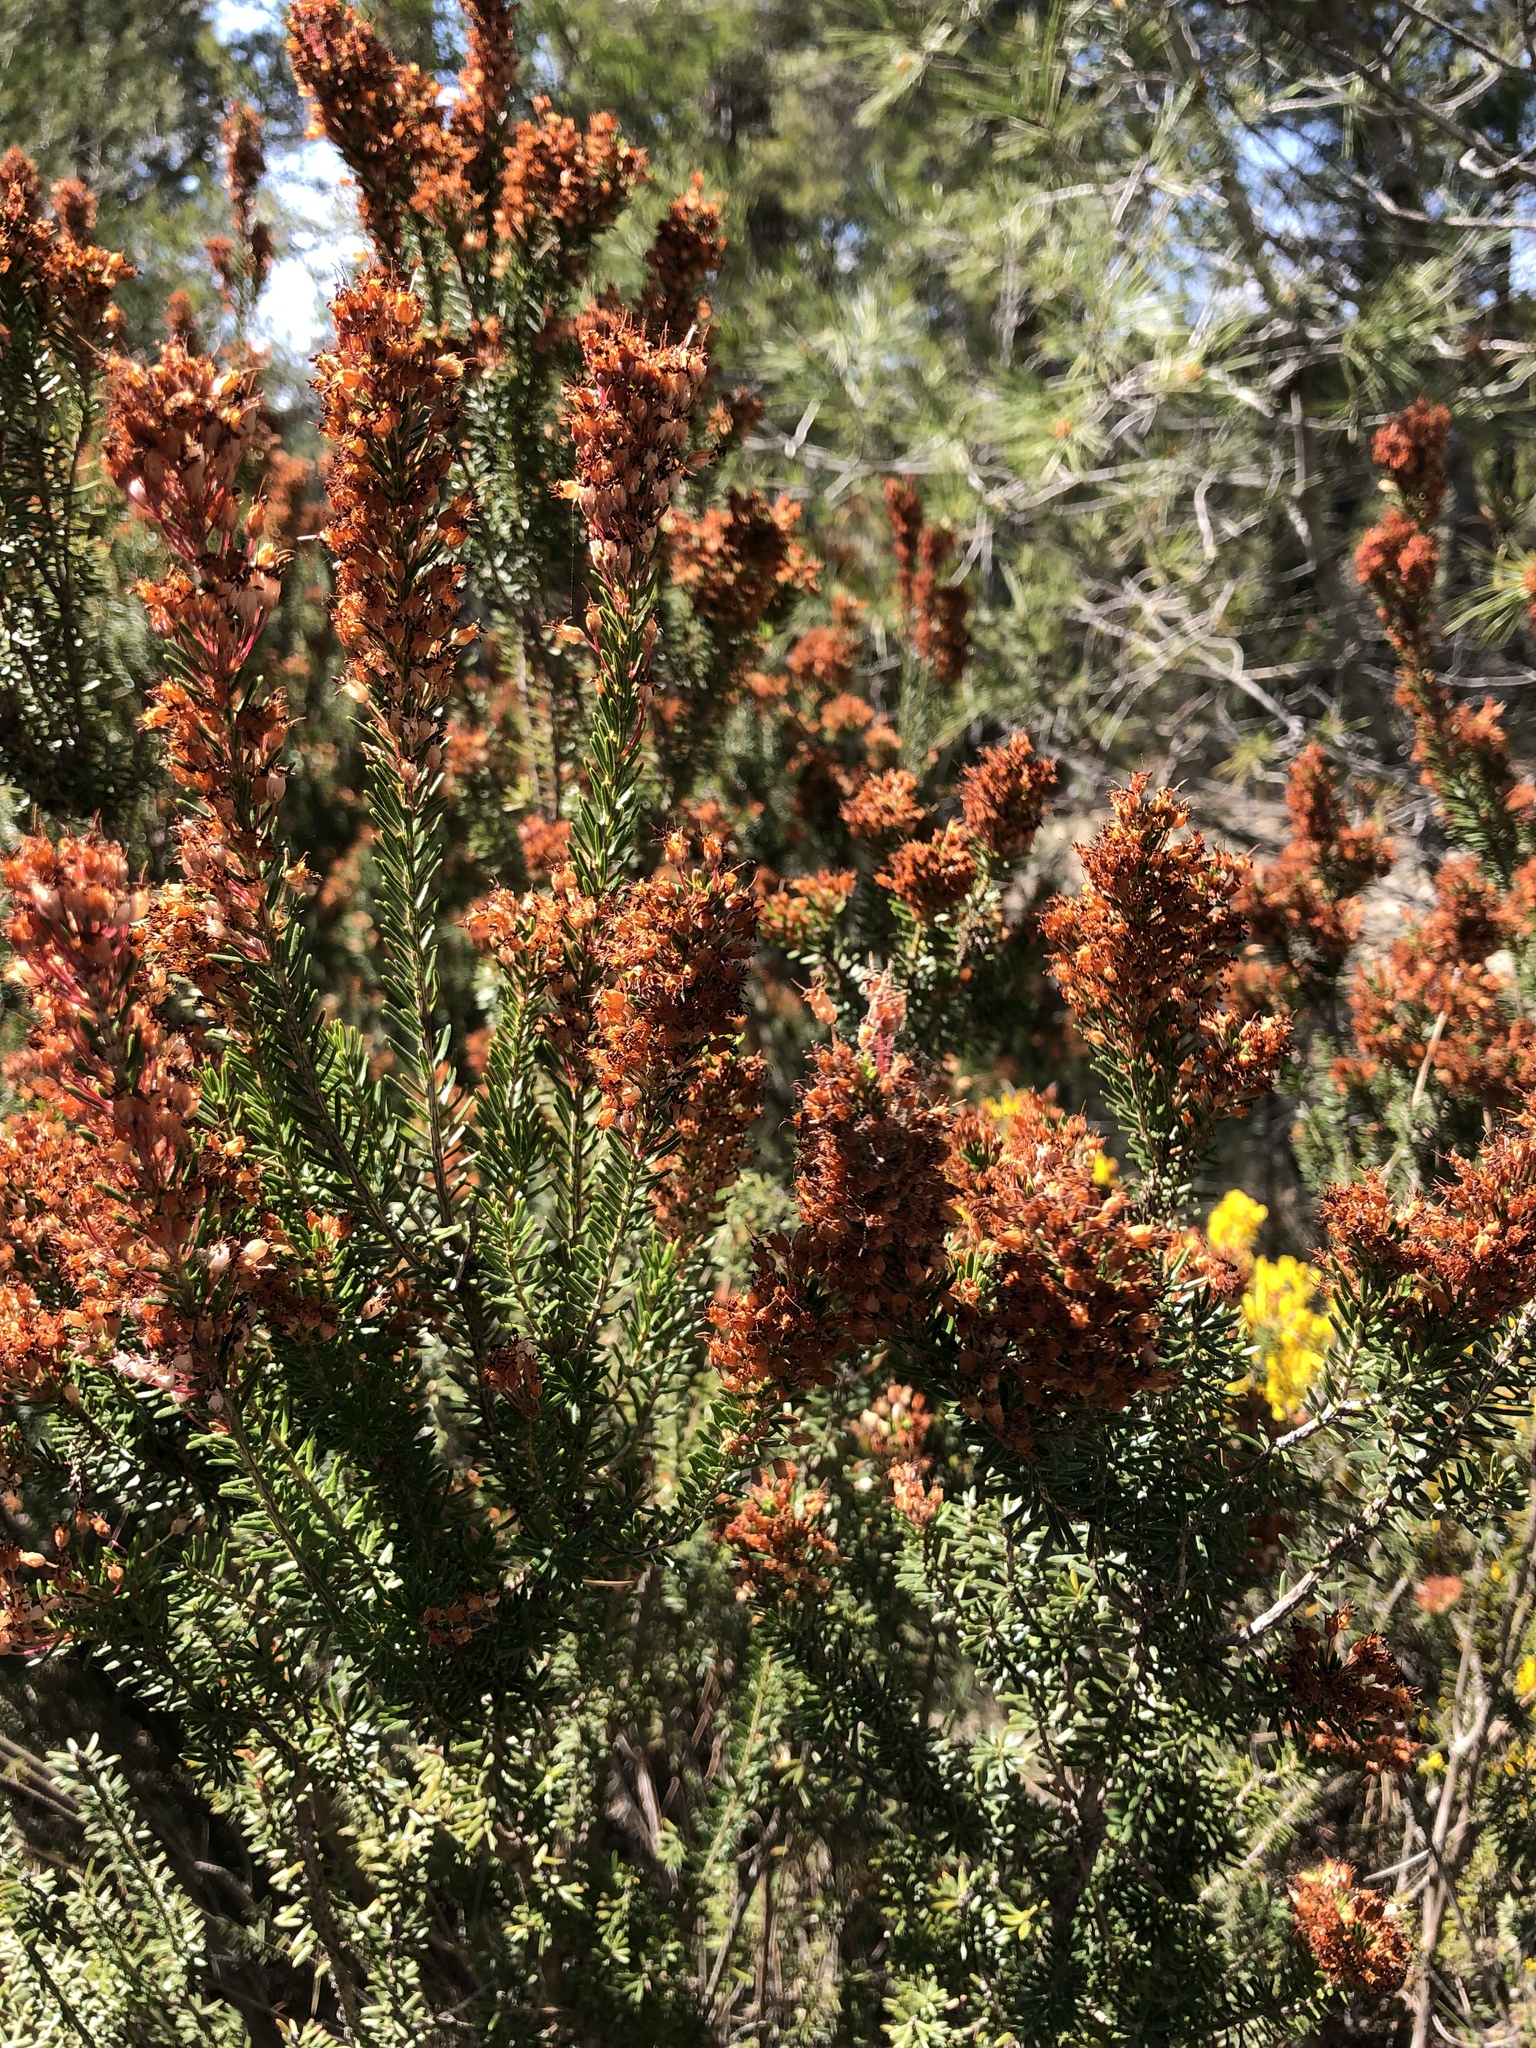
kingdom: Plantae
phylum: Tracheophyta
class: Magnoliopsida
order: Ericales
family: Ericaceae
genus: Erica
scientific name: Erica multiflora
